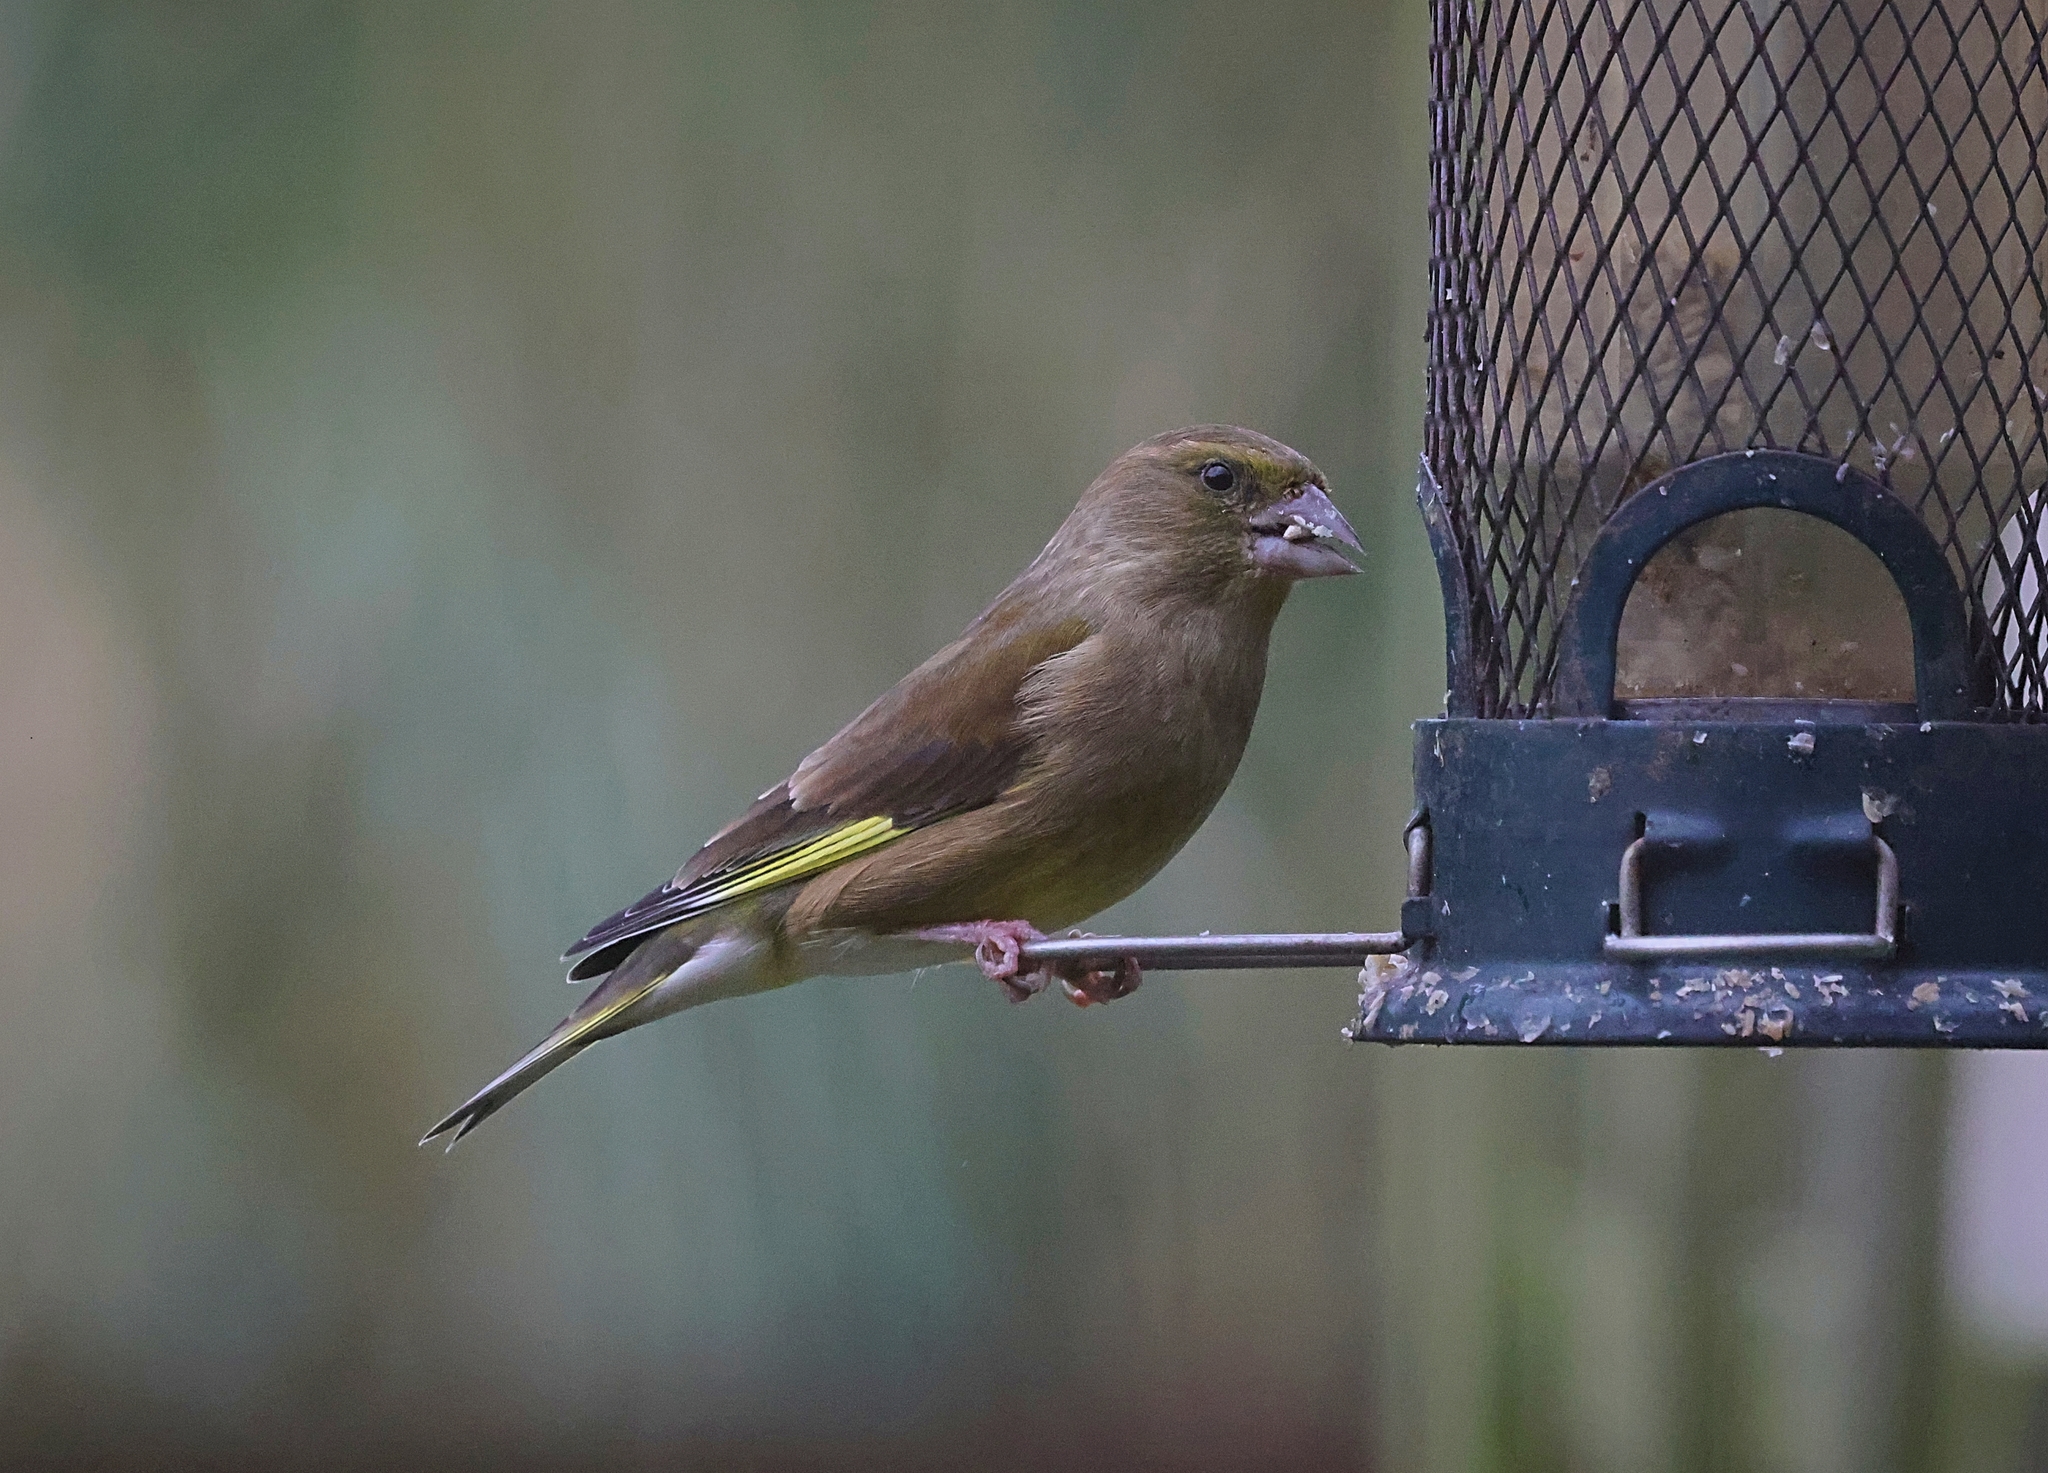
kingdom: Plantae
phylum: Tracheophyta
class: Liliopsida
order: Poales
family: Poaceae
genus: Chloris
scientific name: Chloris chloris
